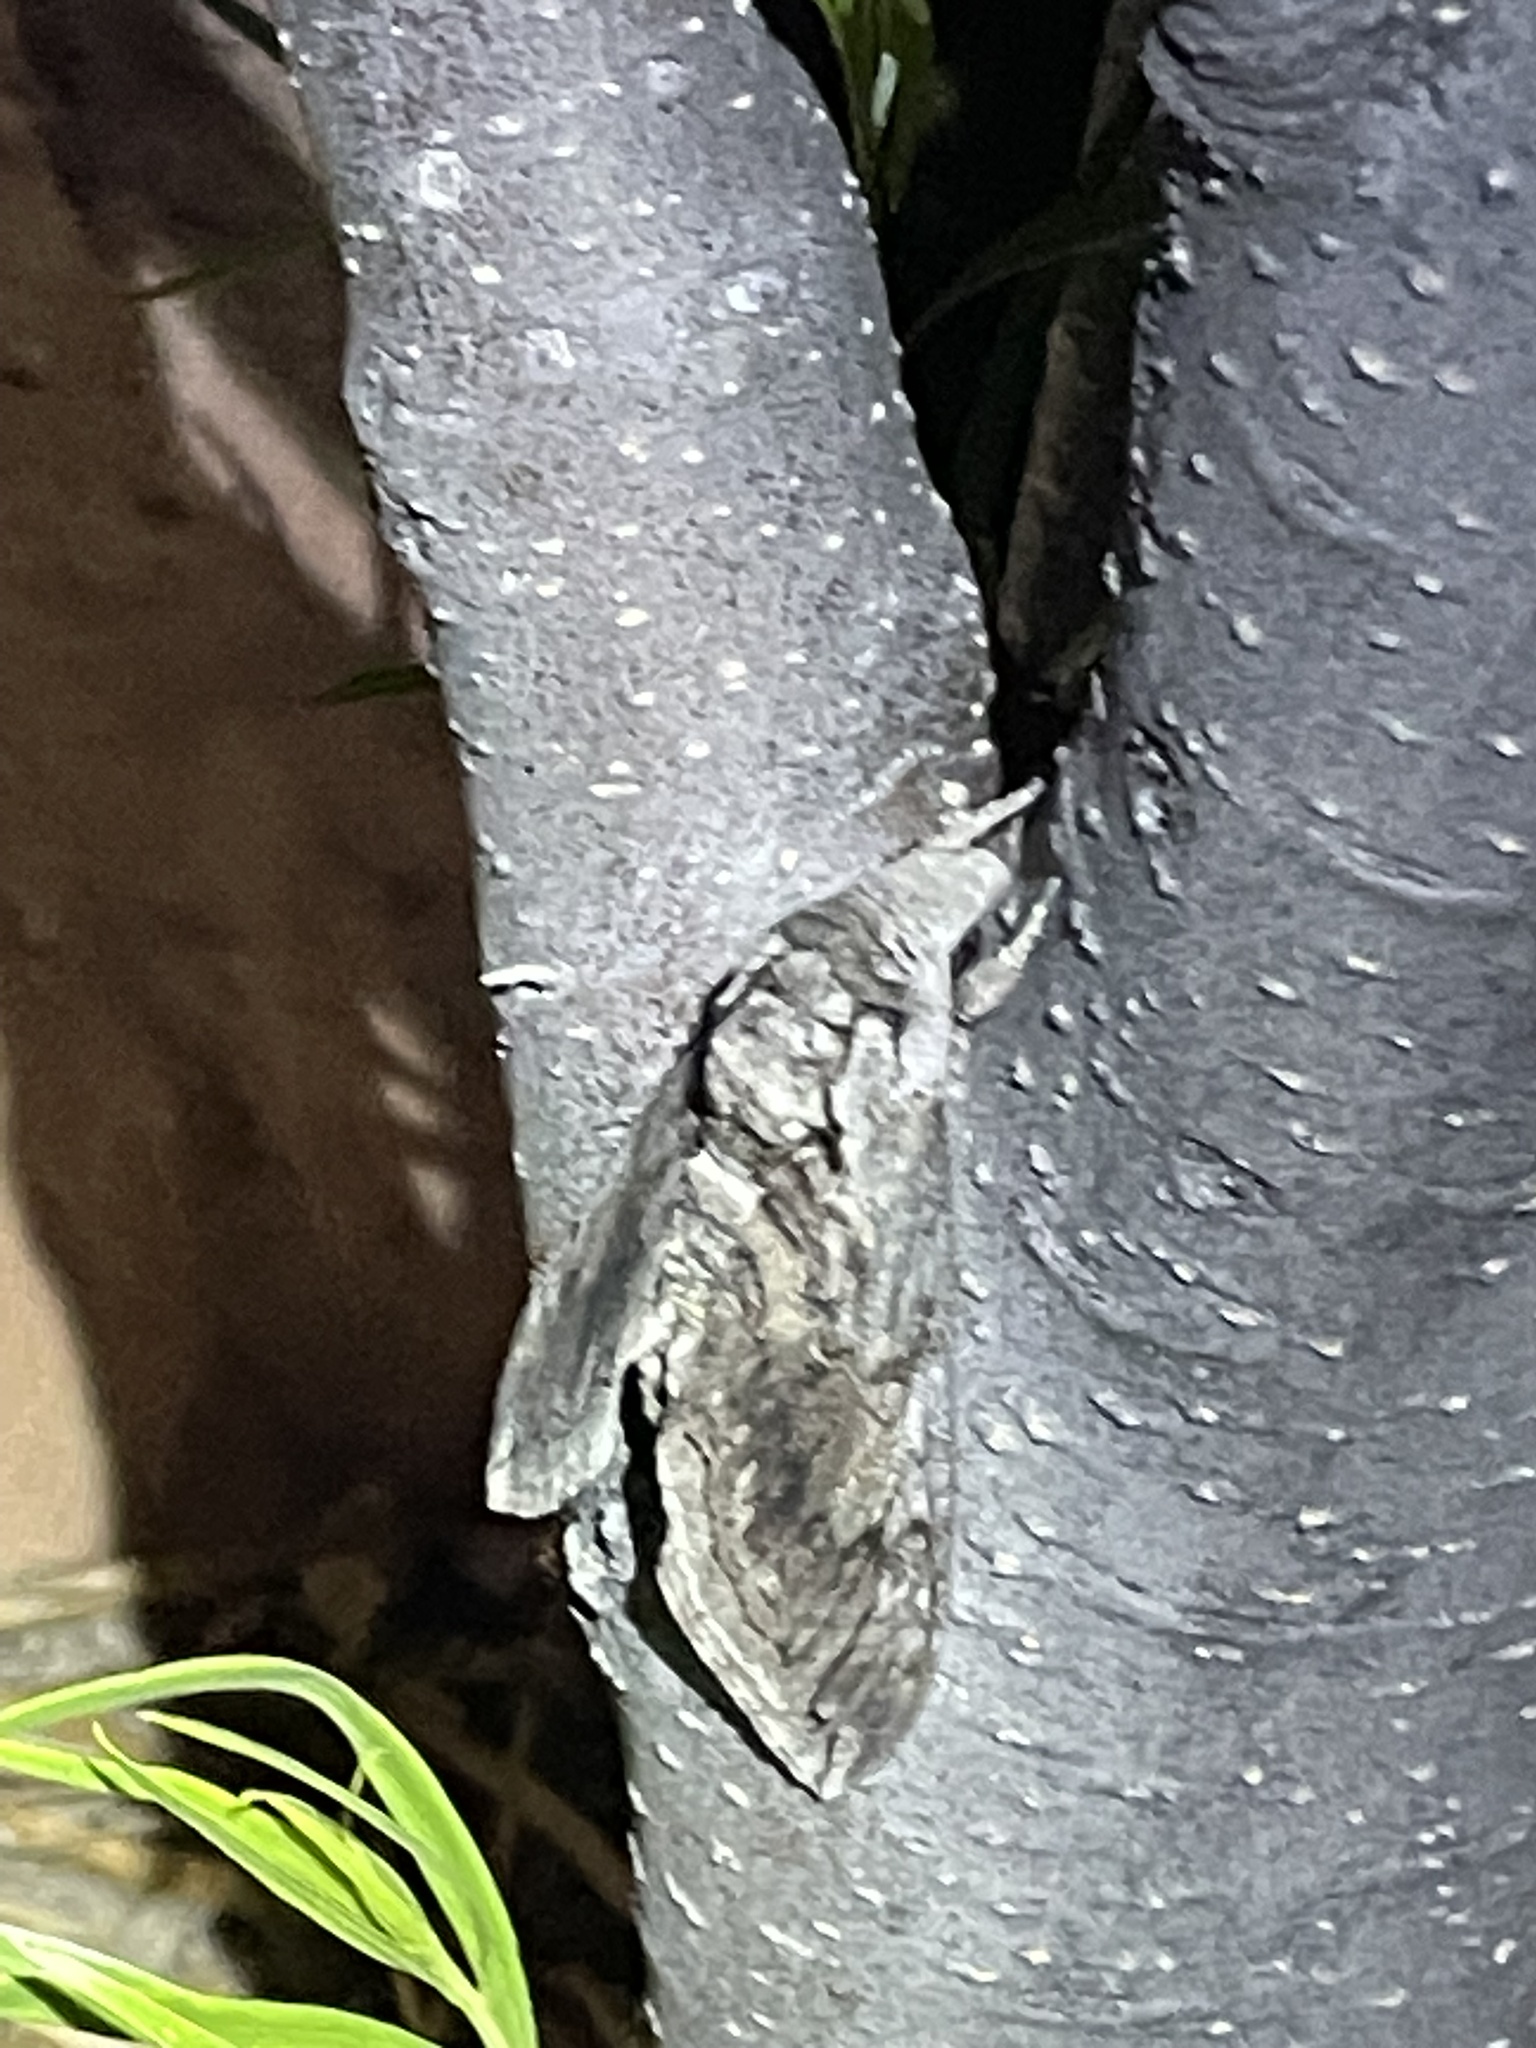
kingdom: Animalia
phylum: Arthropoda
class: Insecta
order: Lepidoptera
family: Sphingidae
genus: Manduca
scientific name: Manduca quinquemaculatus
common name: Five-spotted hawk-moth
